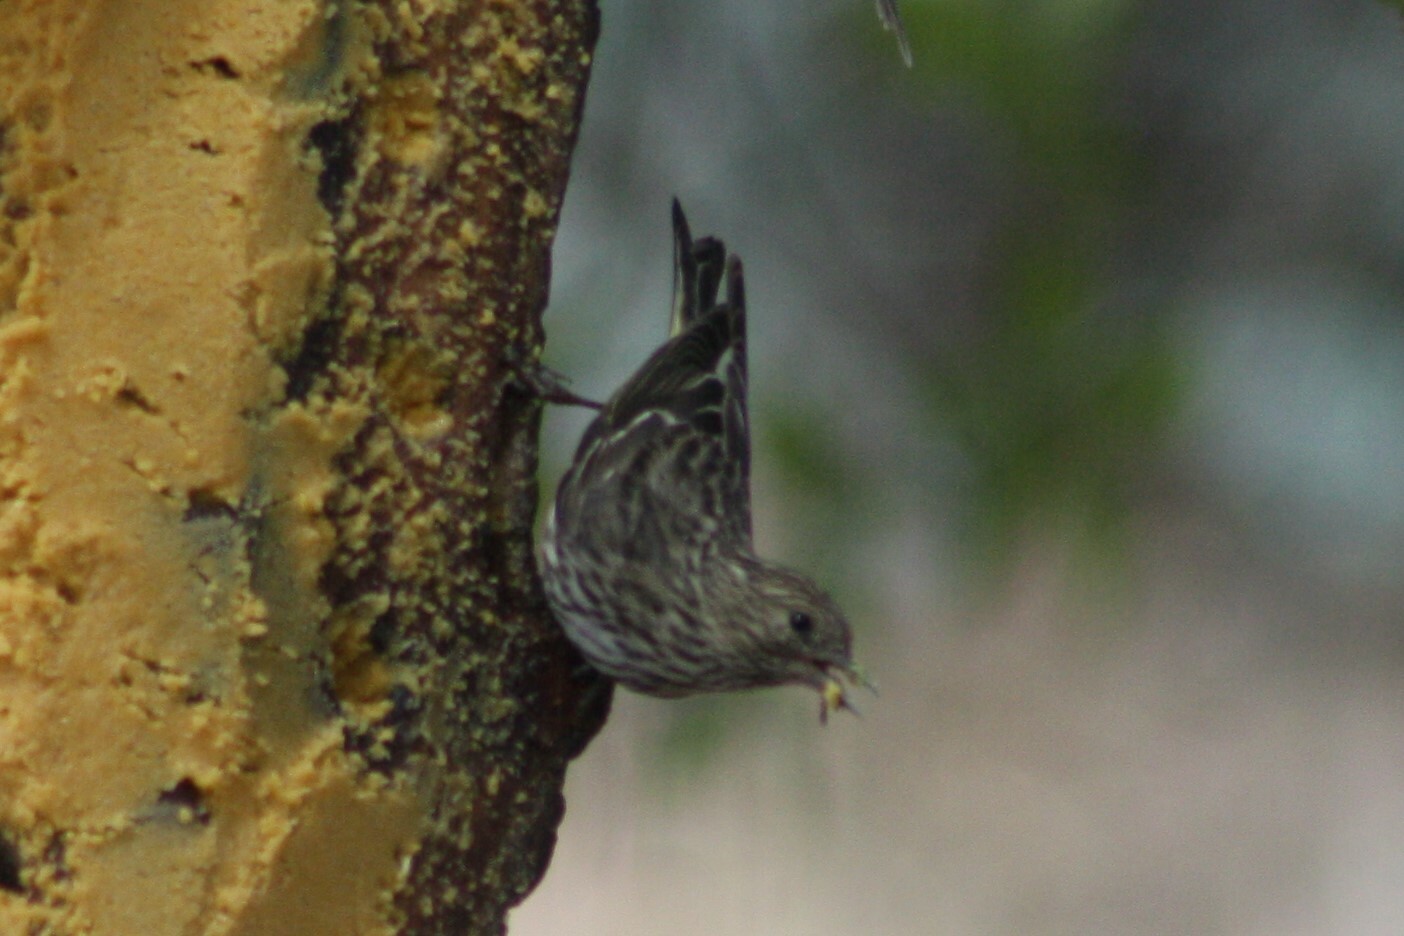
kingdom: Animalia
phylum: Chordata
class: Aves
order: Passeriformes
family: Fringillidae
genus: Spinus
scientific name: Spinus pinus
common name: Pine siskin
